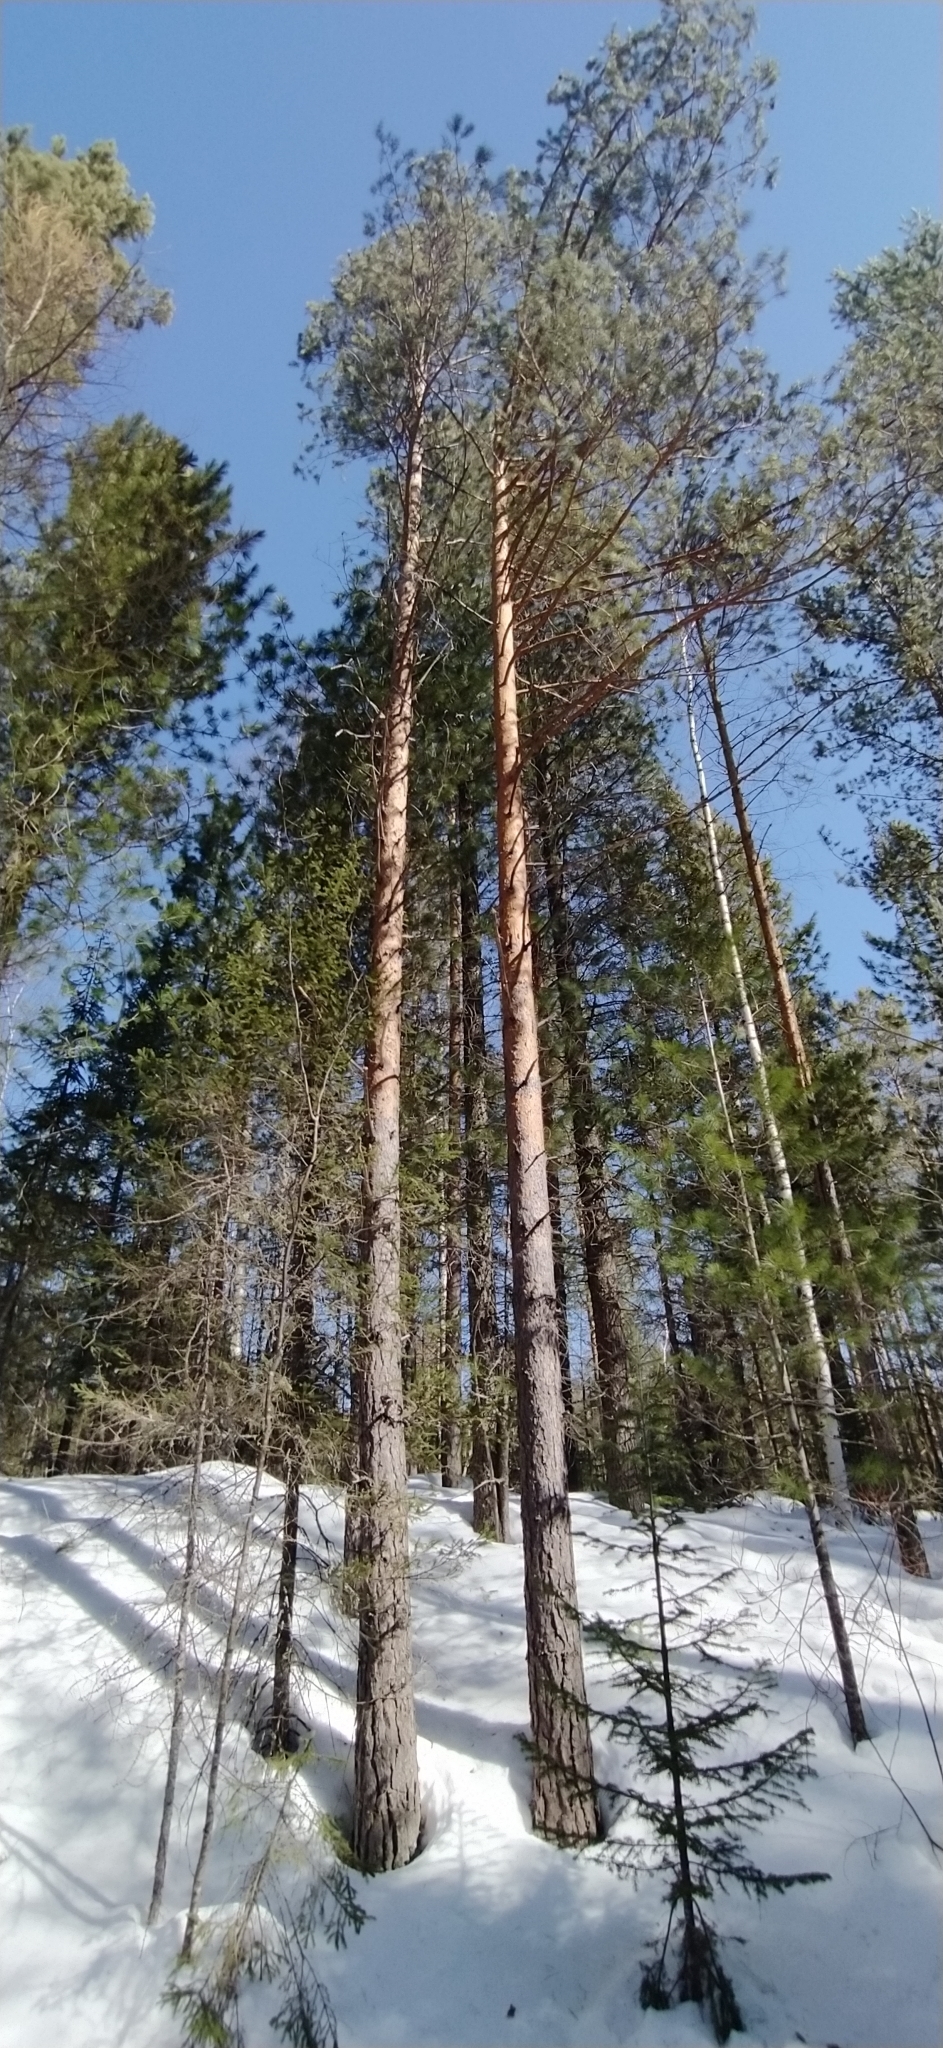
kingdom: Plantae
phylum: Tracheophyta
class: Pinopsida
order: Pinales
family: Pinaceae
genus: Pinus
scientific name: Pinus sylvestris
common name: Scots pine
